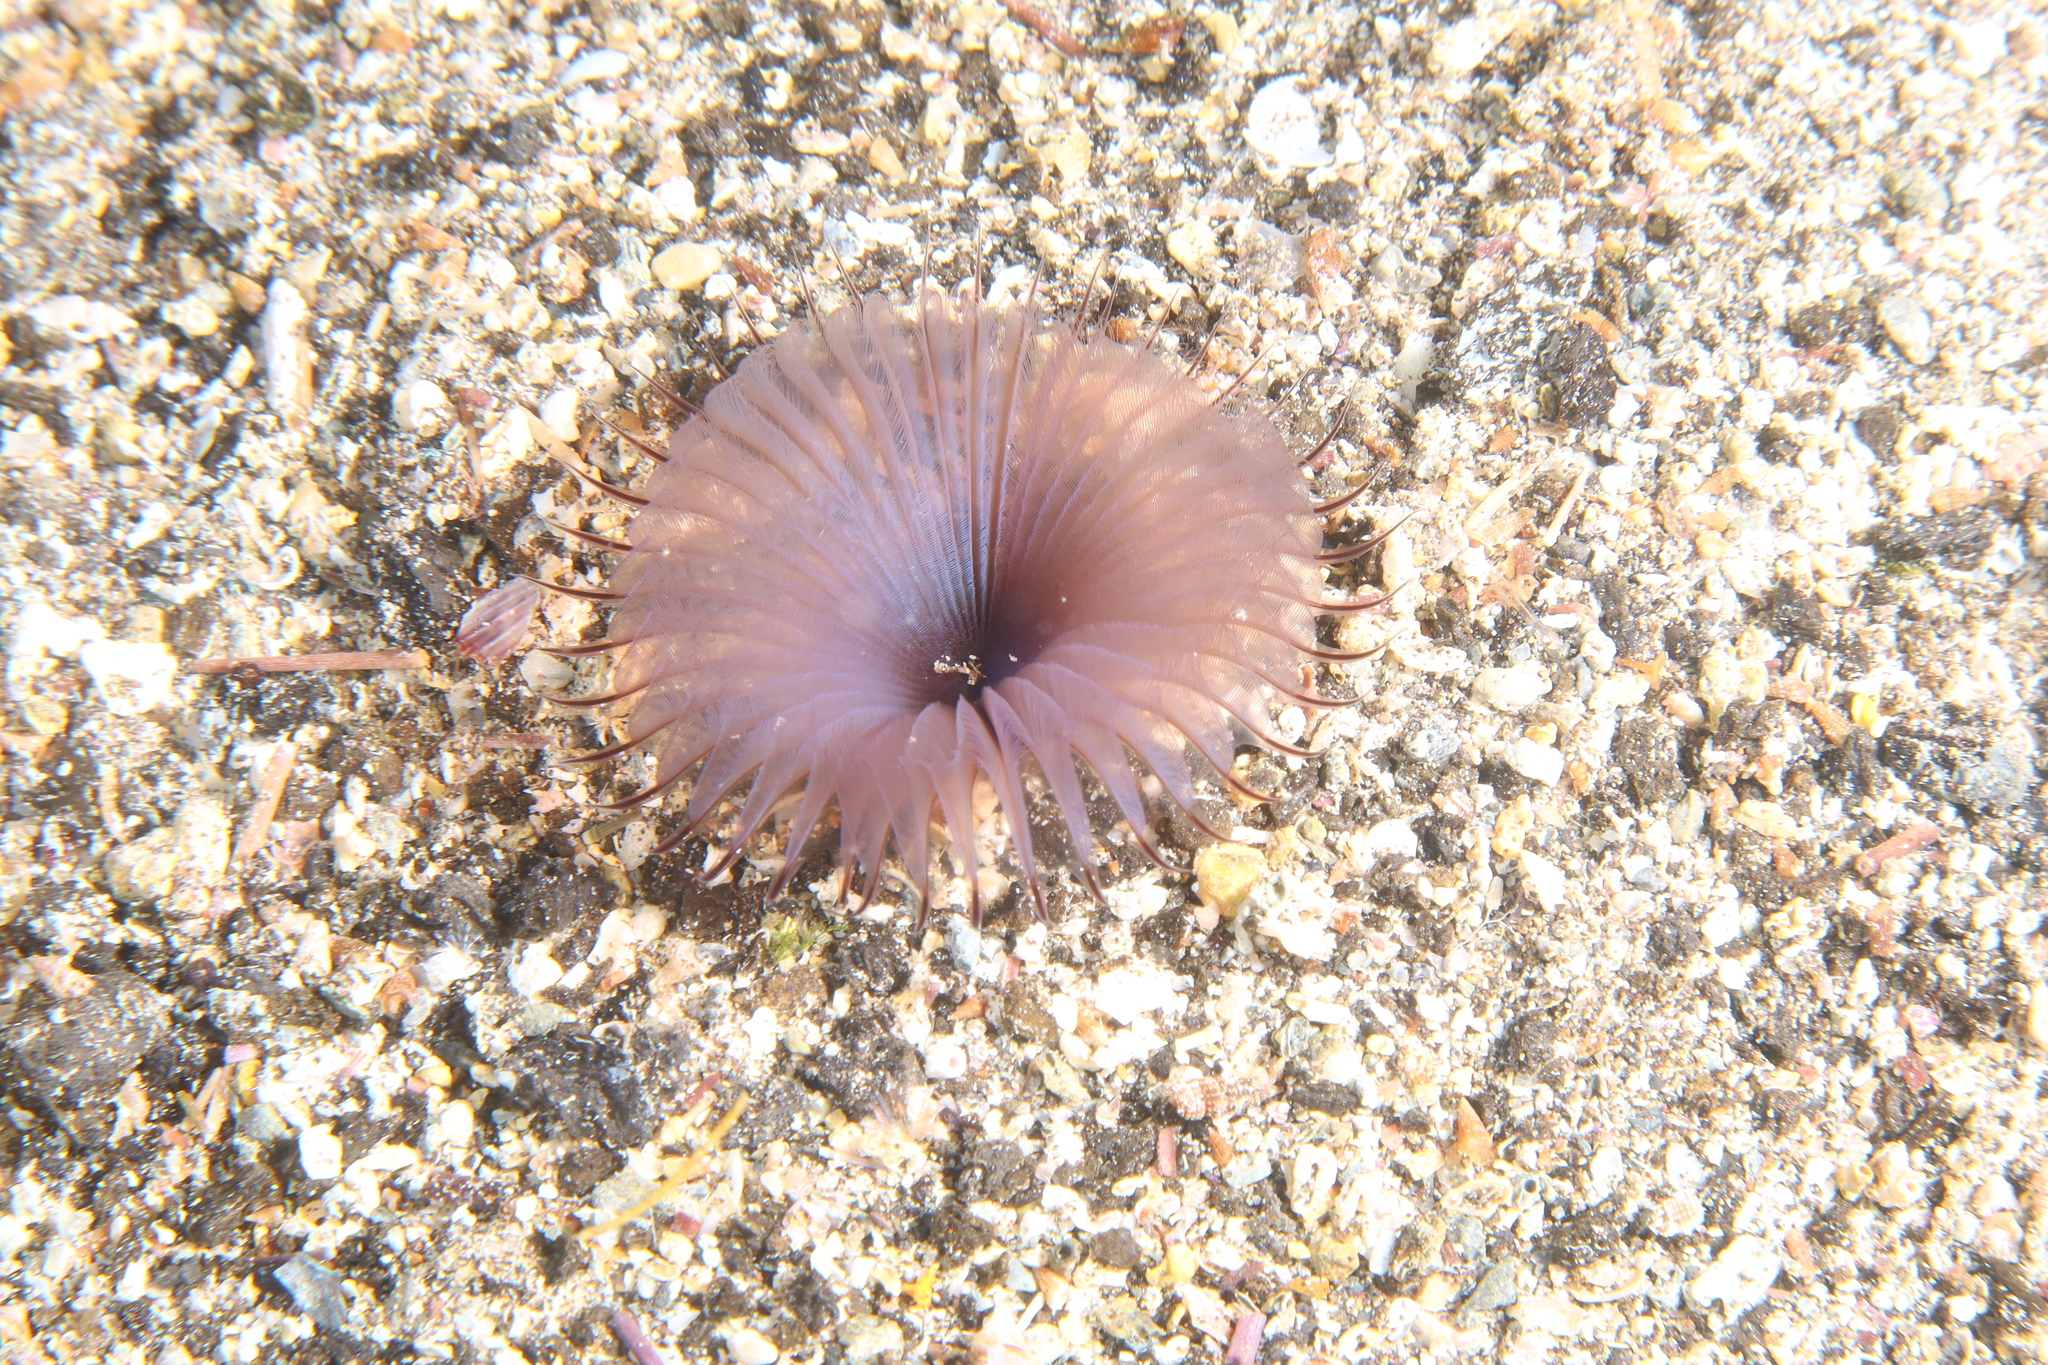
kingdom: Animalia
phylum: Annelida
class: Polychaeta
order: Sabellida
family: Sabellidae
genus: Myxicola
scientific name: Myxicola infundibulum
